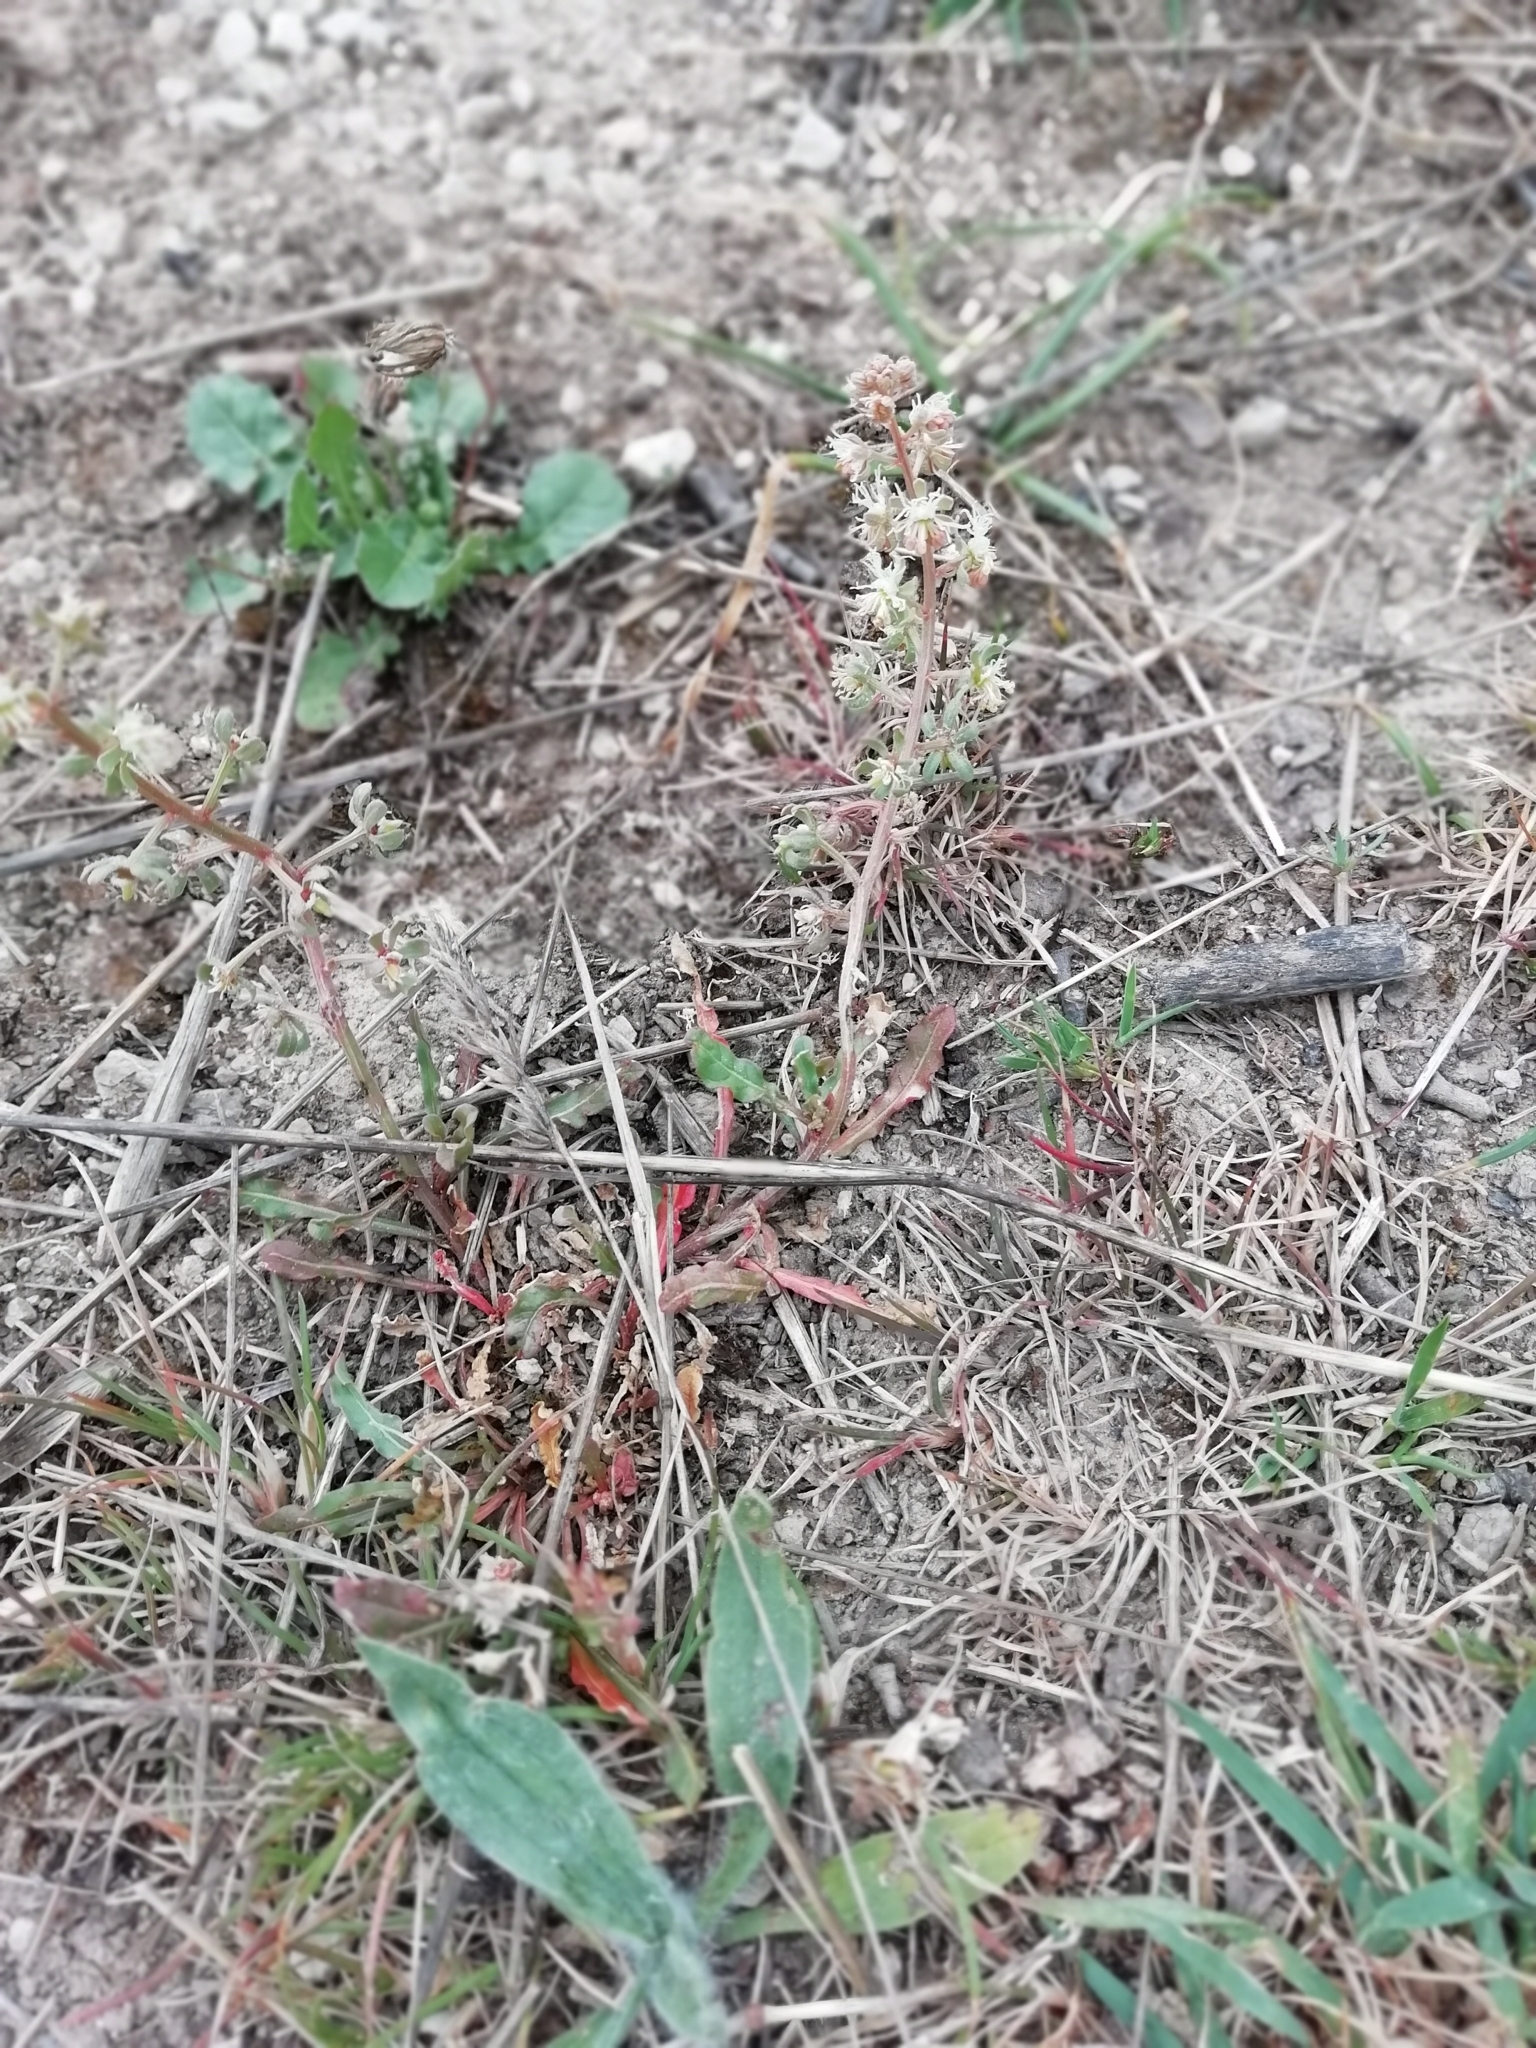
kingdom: Plantae
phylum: Tracheophyta
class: Magnoliopsida
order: Brassicales
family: Resedaceae
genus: Reseda
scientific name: Reseda phyteuma
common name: Corn mignonette
